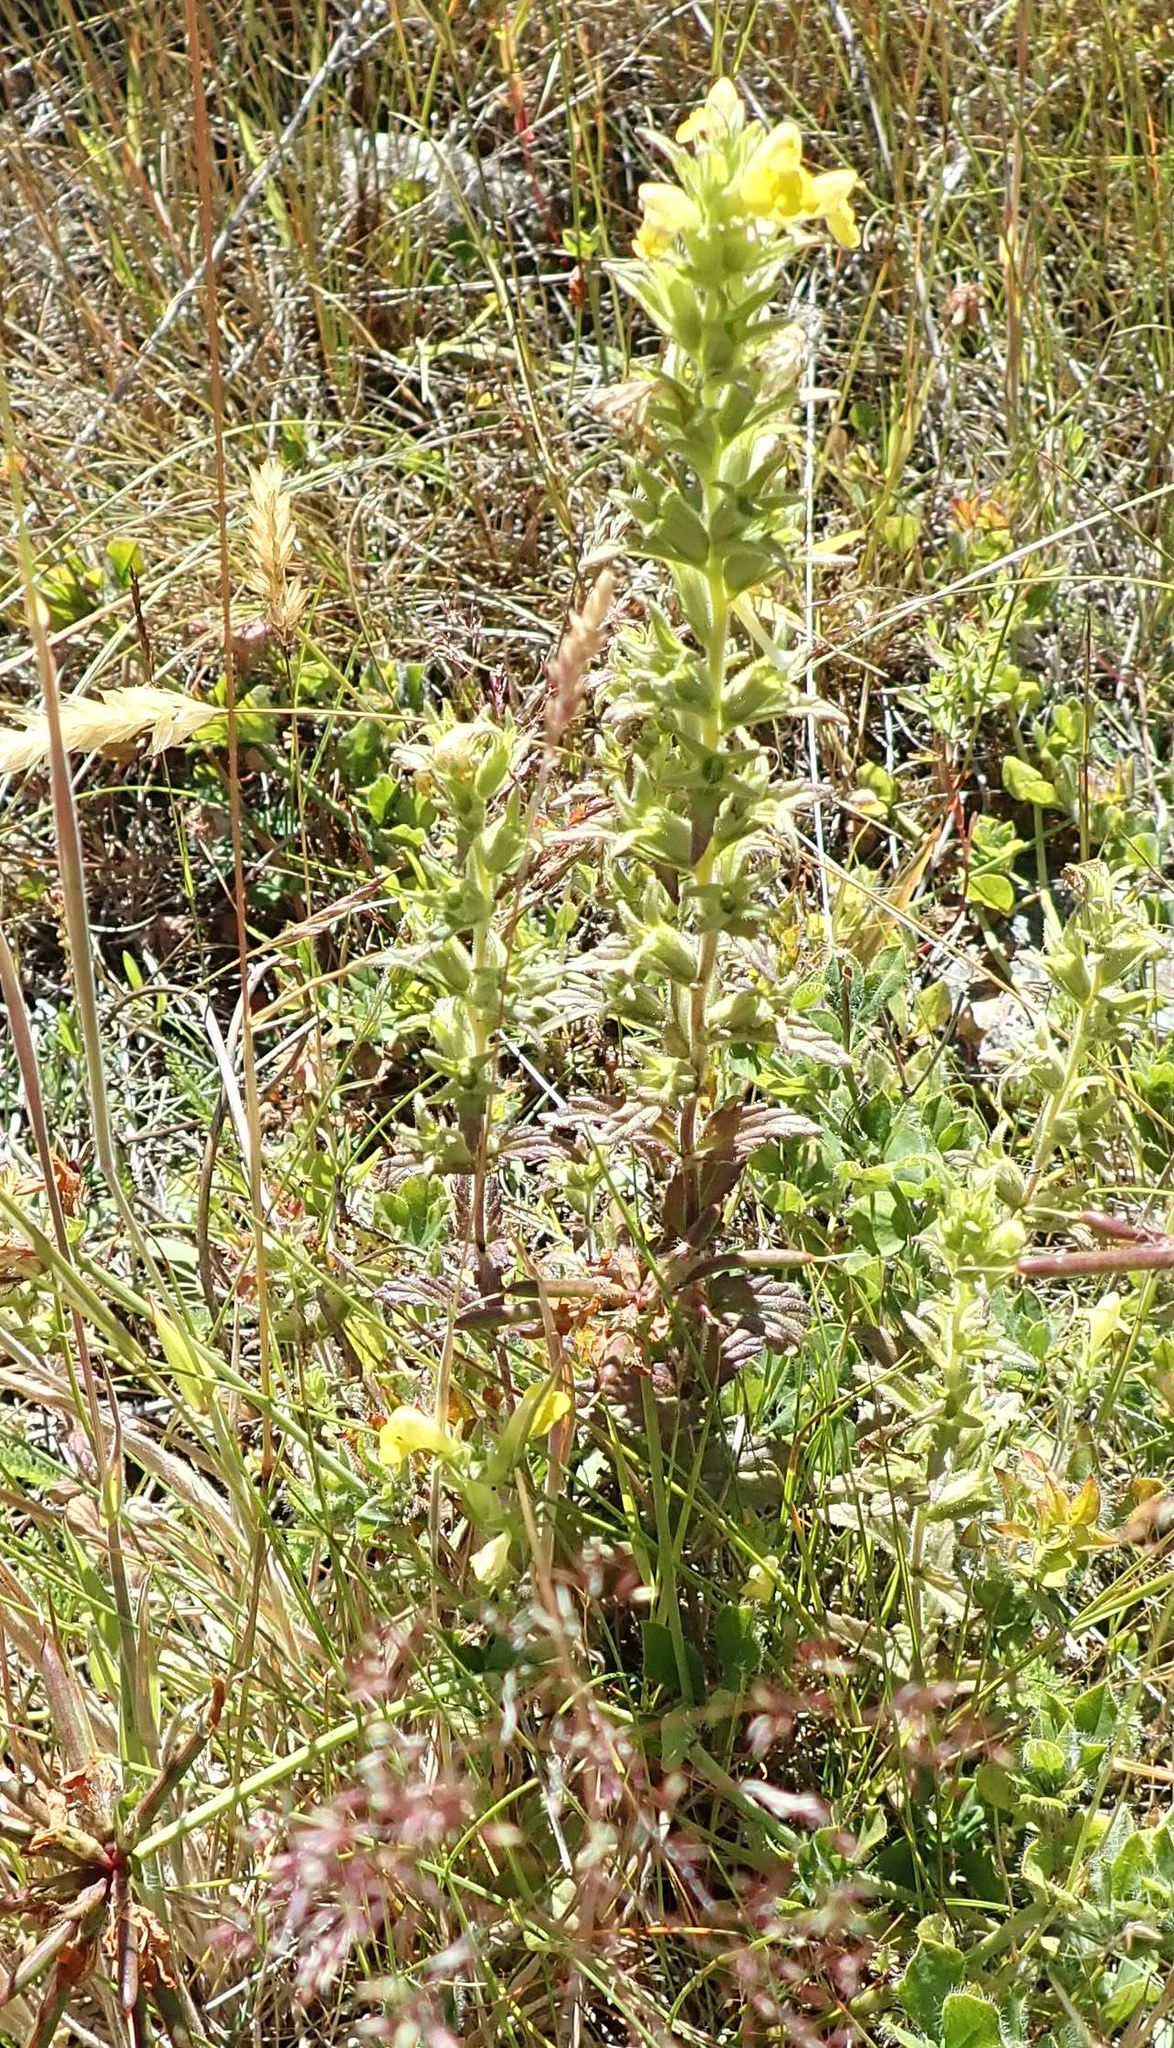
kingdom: Plantae
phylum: Tracheophyta
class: Magnoliopsida
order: Lamiales
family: Orobanchaceae
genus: Bellardia
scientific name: Bellardia viscosa
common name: Sticky parentucellia
